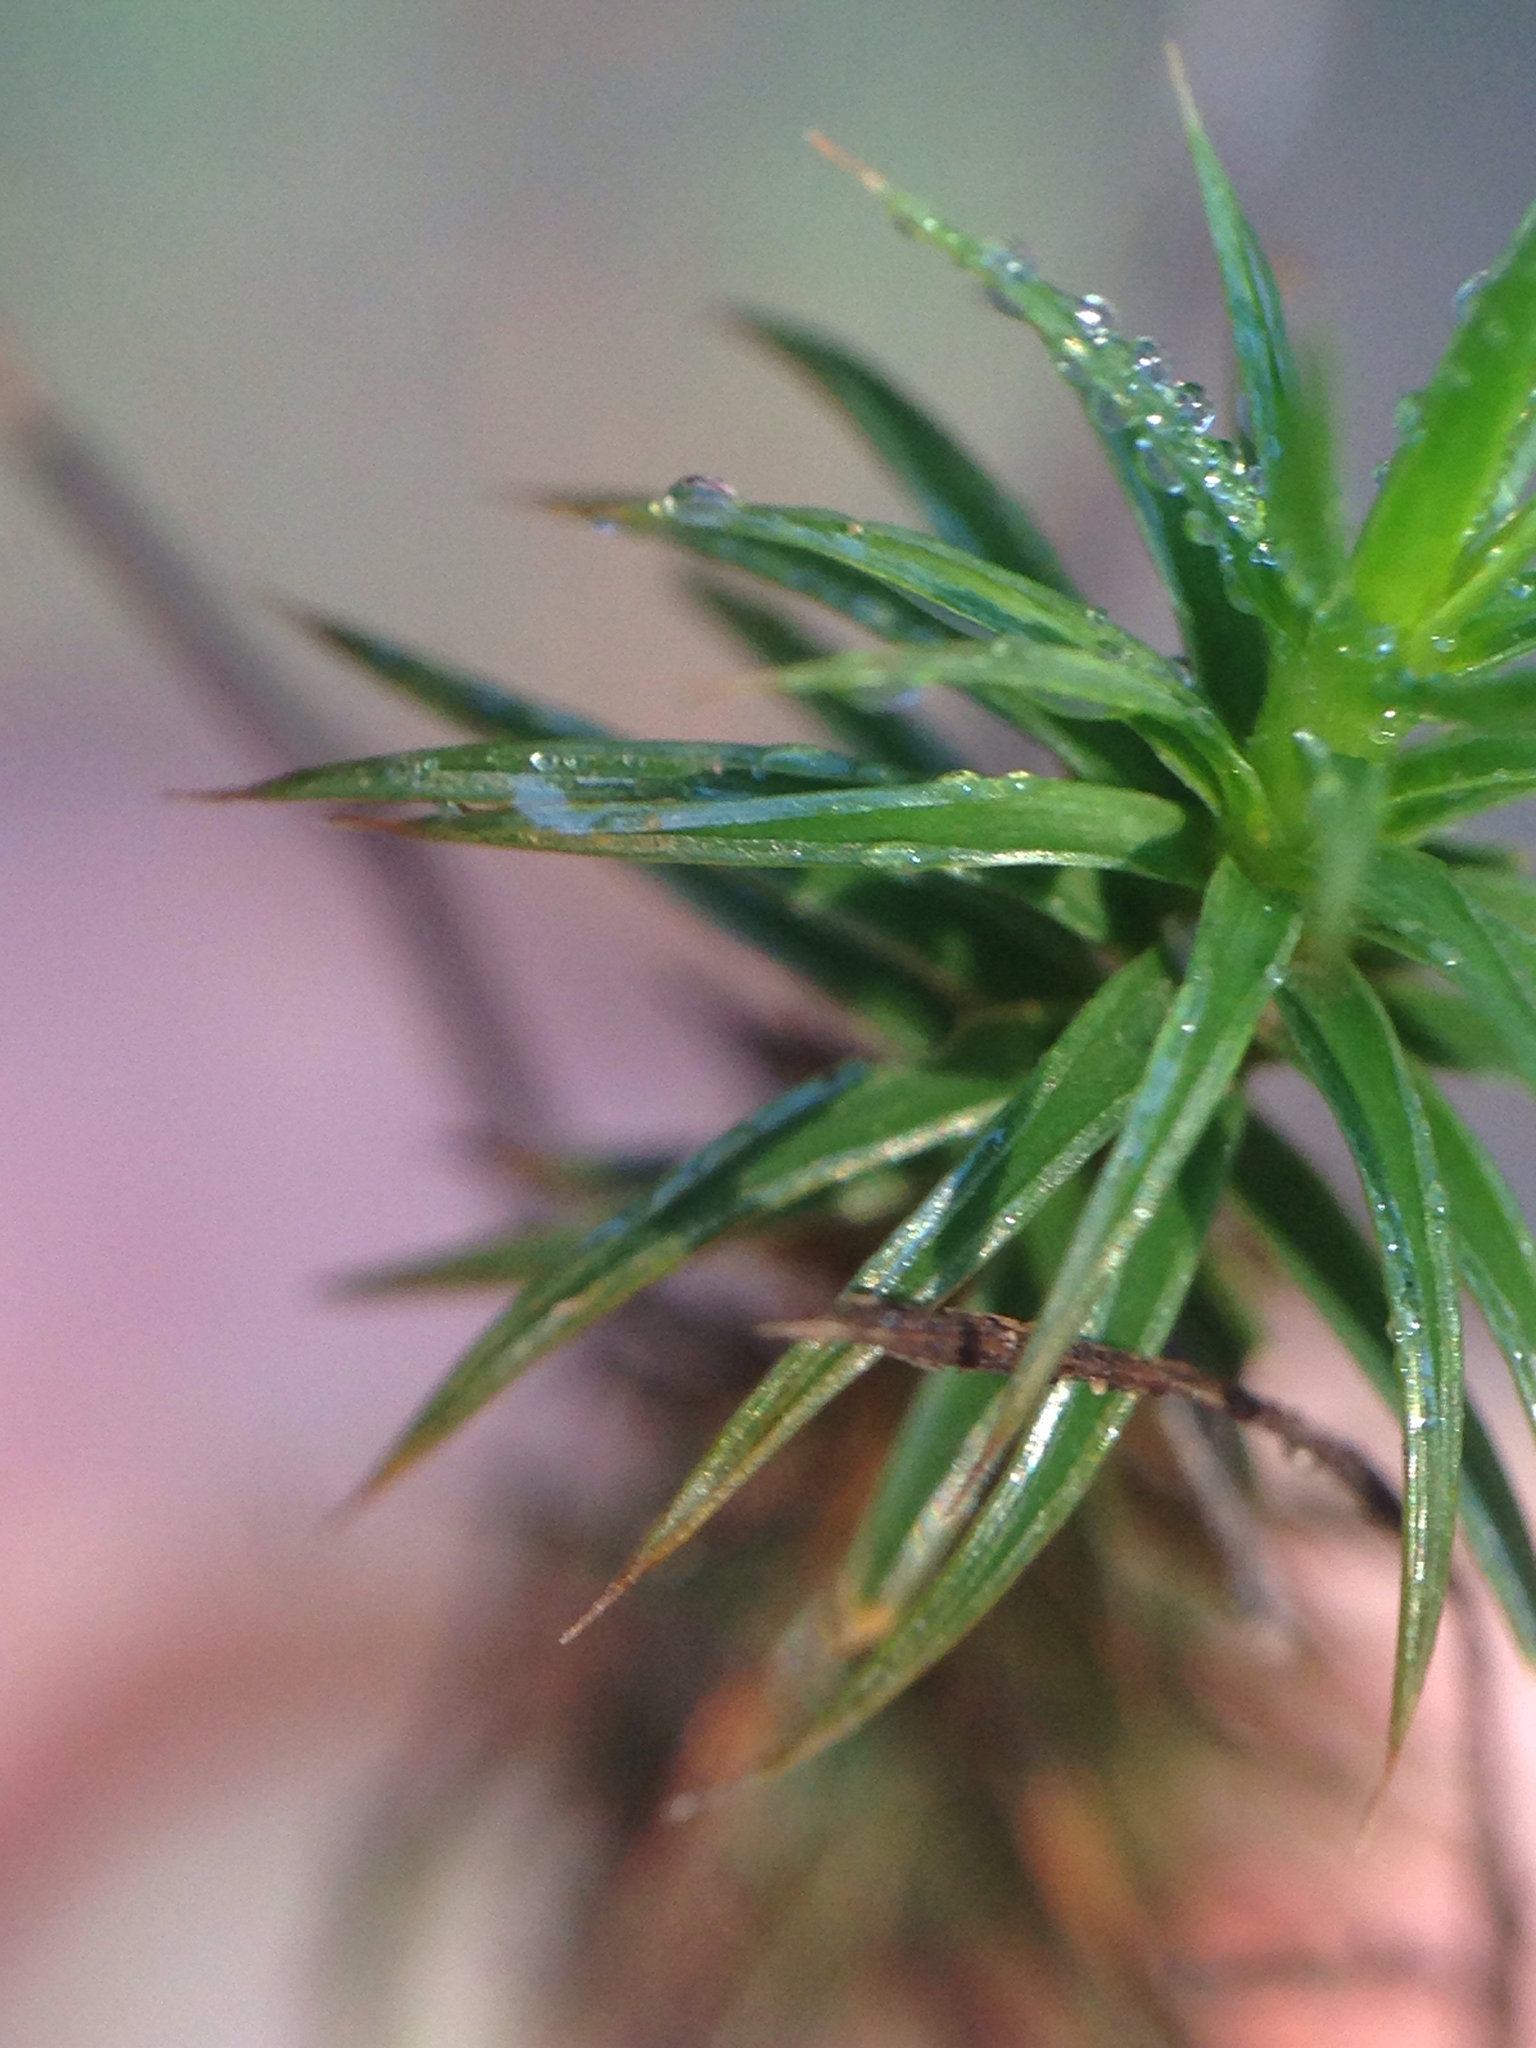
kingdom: Plantae
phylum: Bryophyta
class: Polytrichopsida
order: Polytrichales
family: Polytrichaceae
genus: Polytrichum
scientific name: Polytrichum juniperinum
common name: Juniper haircap moss
